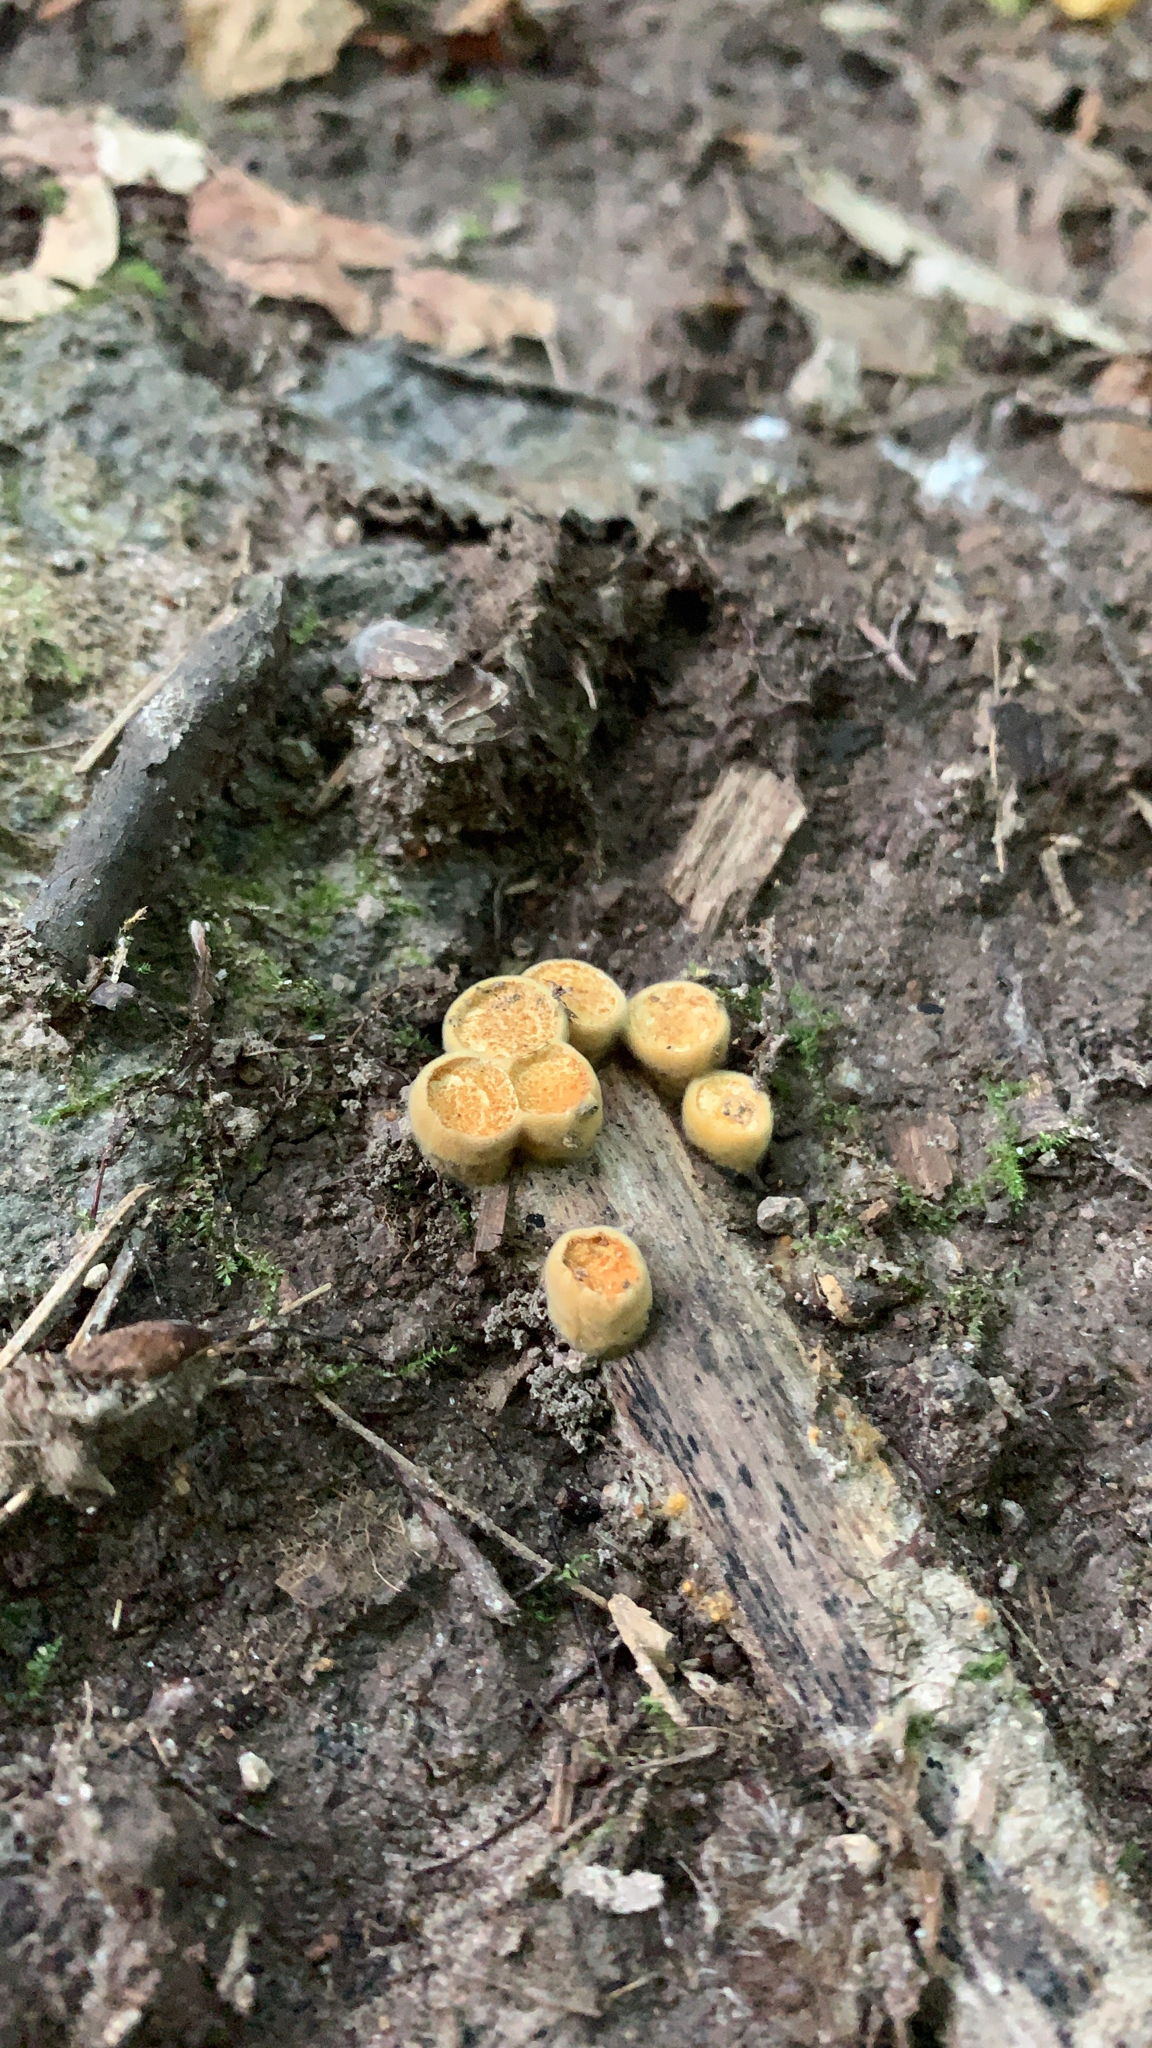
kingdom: Fungi
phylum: Basidiomycota
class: Agaricomycetes
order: Agaricales
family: Nidulariaceae
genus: Crucibulum
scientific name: Crucibulum laeve
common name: Common bird's nest
